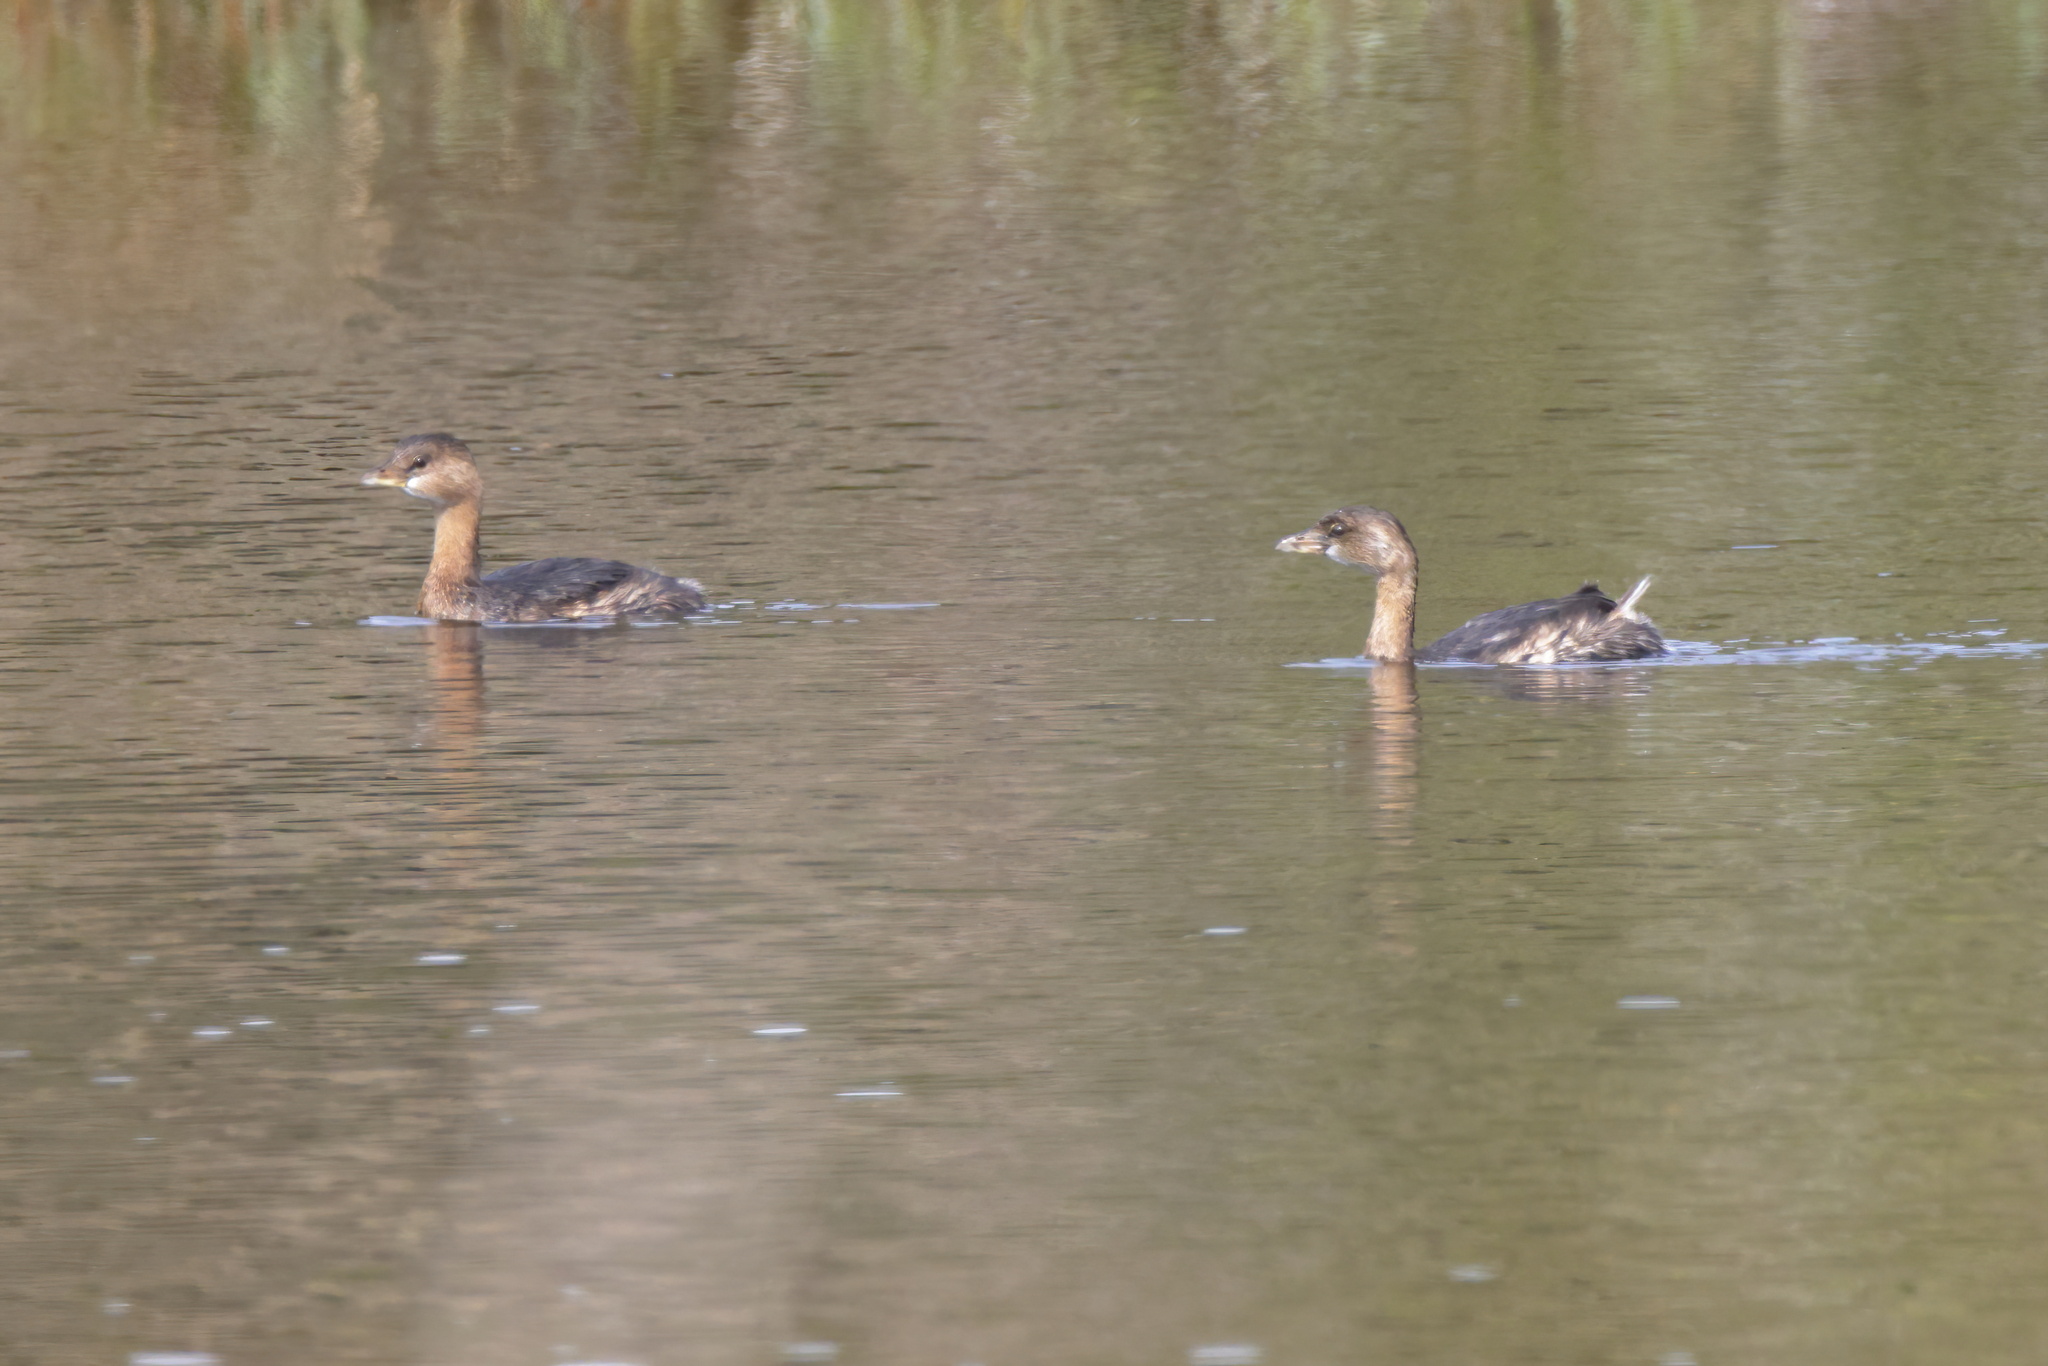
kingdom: Animalia
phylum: Chordata
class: Aves
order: Podicipediformes
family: Podicipedidae
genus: Podilymbus
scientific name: Podilymbus podiceps
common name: Pied-billed grebe
